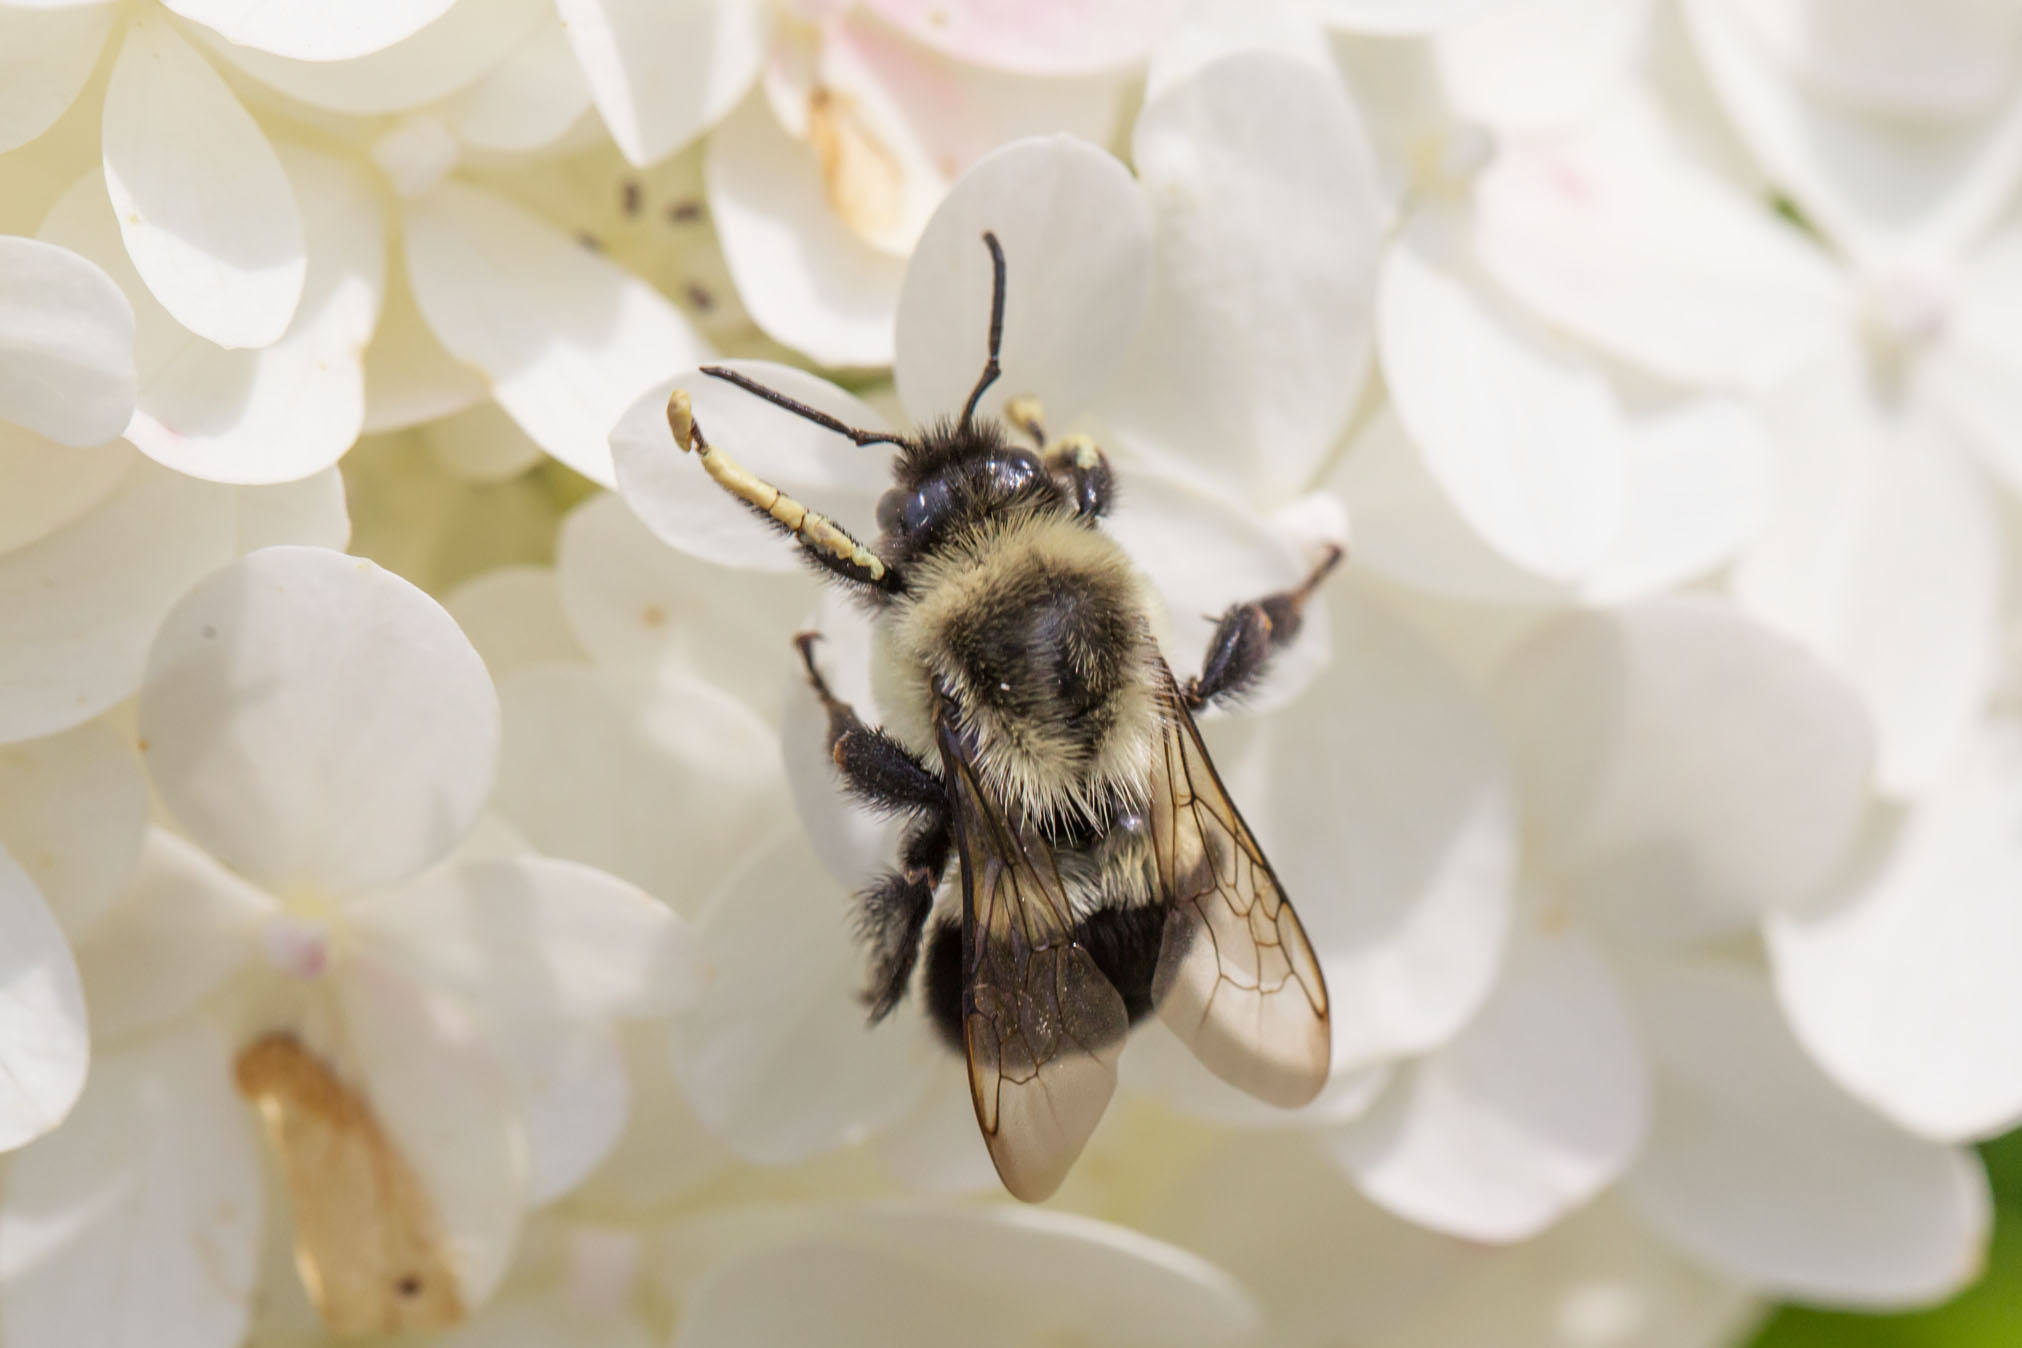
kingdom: Animalia
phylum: Arthropoda
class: Insecta
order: Hymenoptera
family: Apidae
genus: Bombus
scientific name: Bombus impatiens
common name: Common eastern bumble bee
